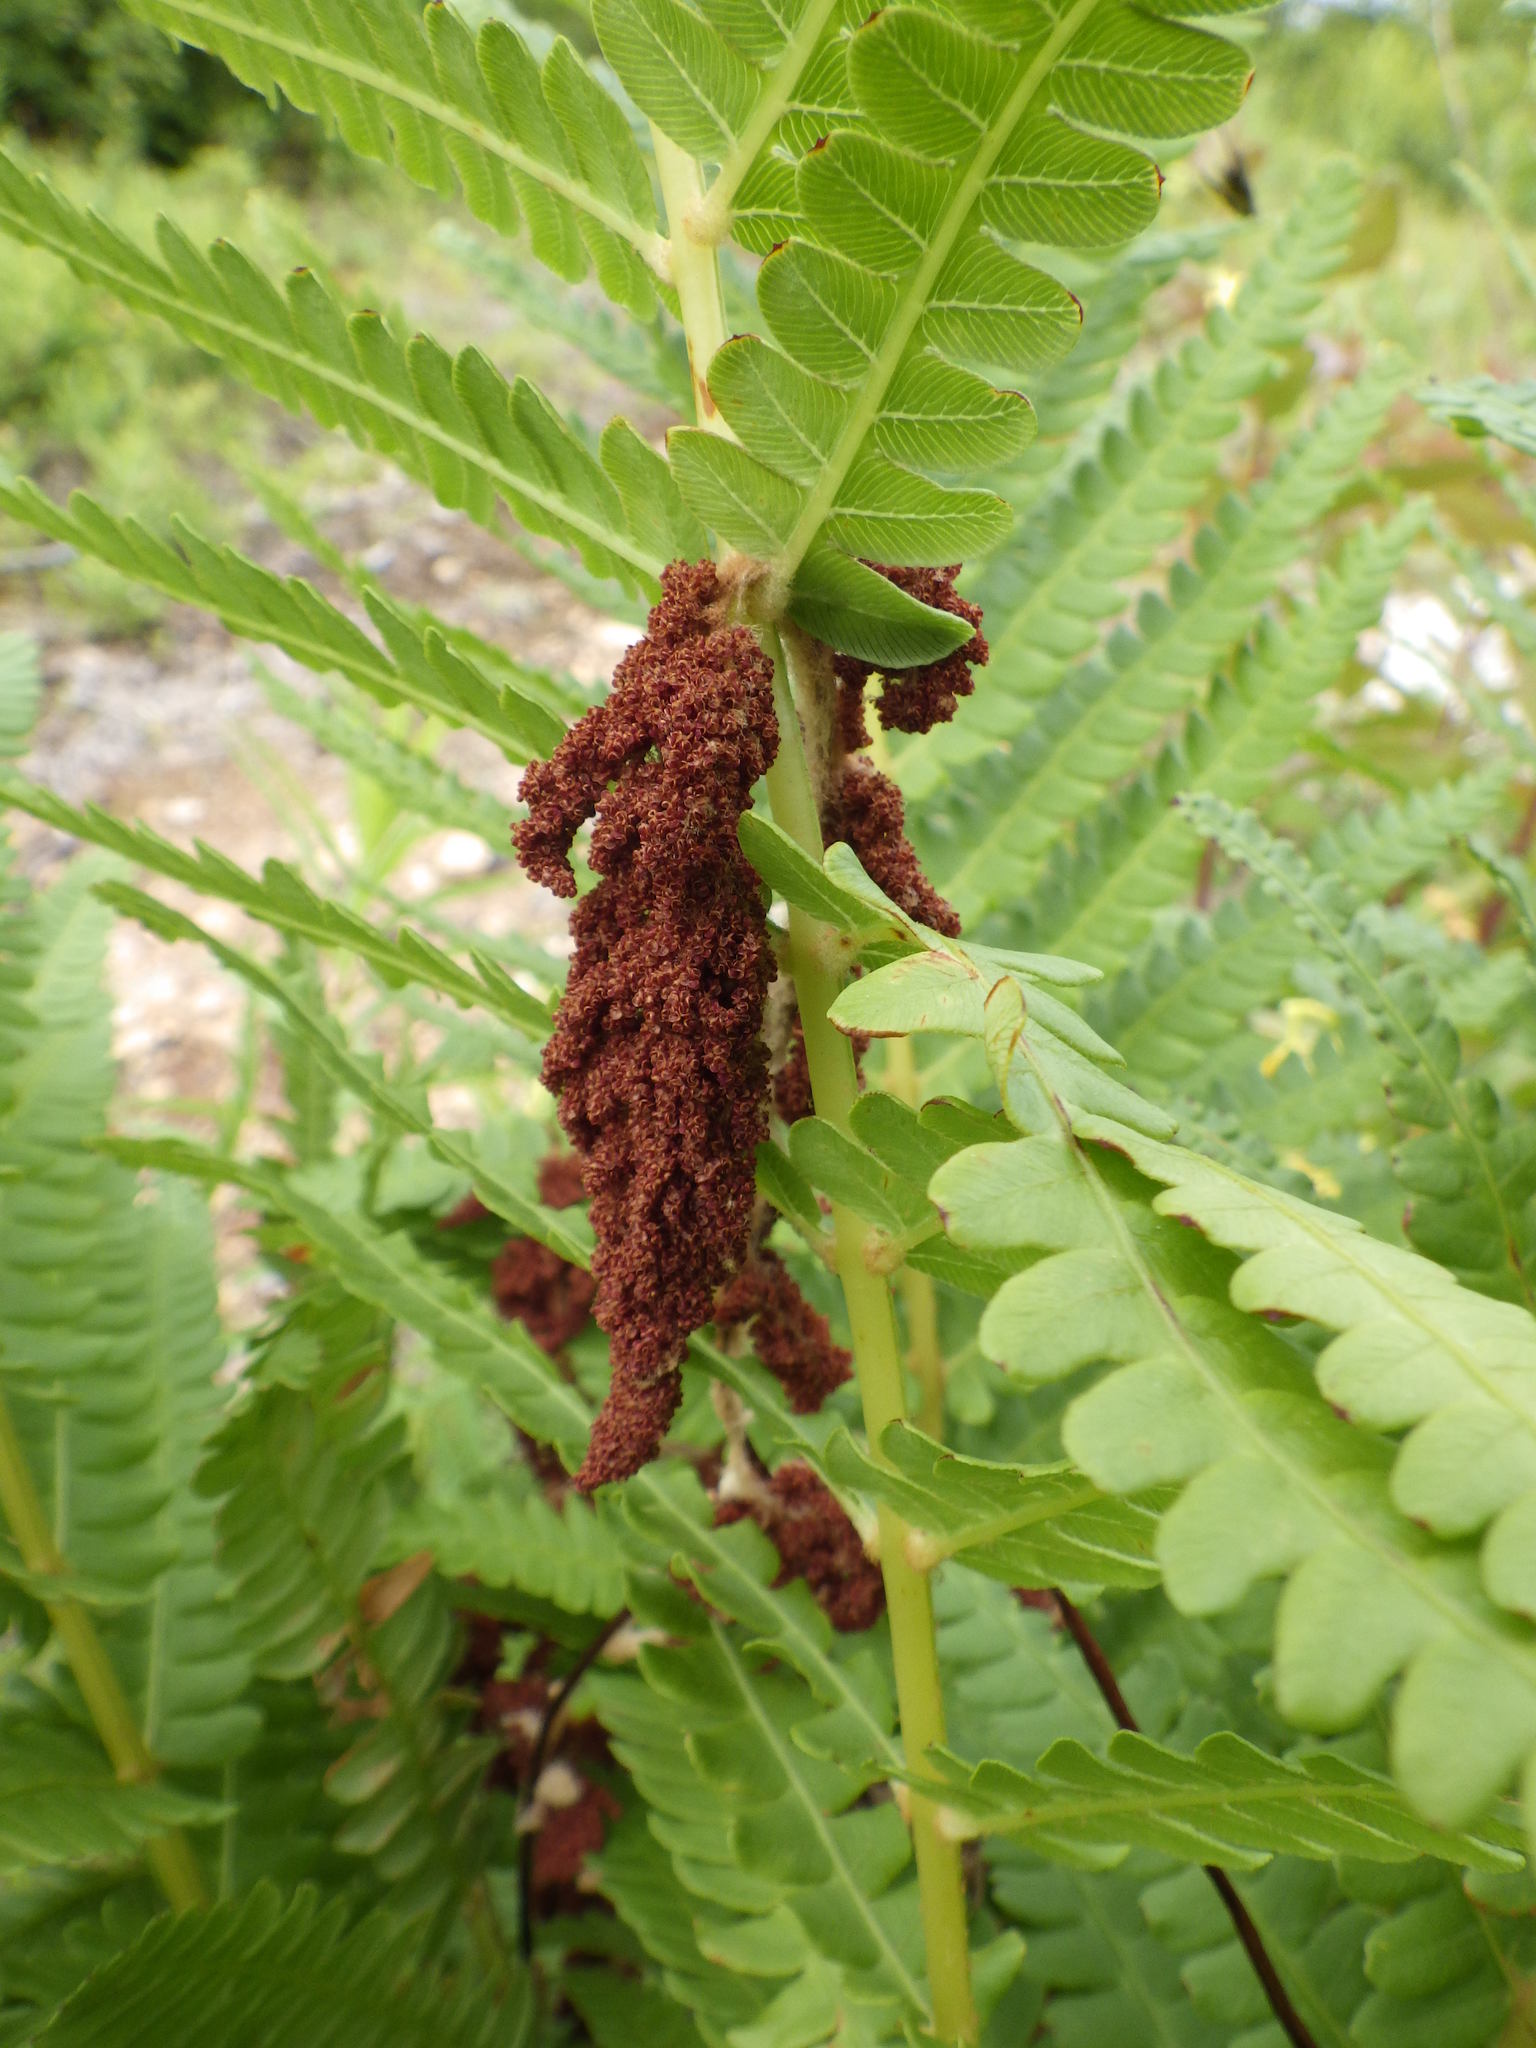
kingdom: Plantae
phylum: Tracheophyta
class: Polypodiopsida
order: Osmundales
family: Osmundaceae
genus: Osmundastrum
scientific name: Osmundastrum cinnamomeum
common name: Cinnamon fern
